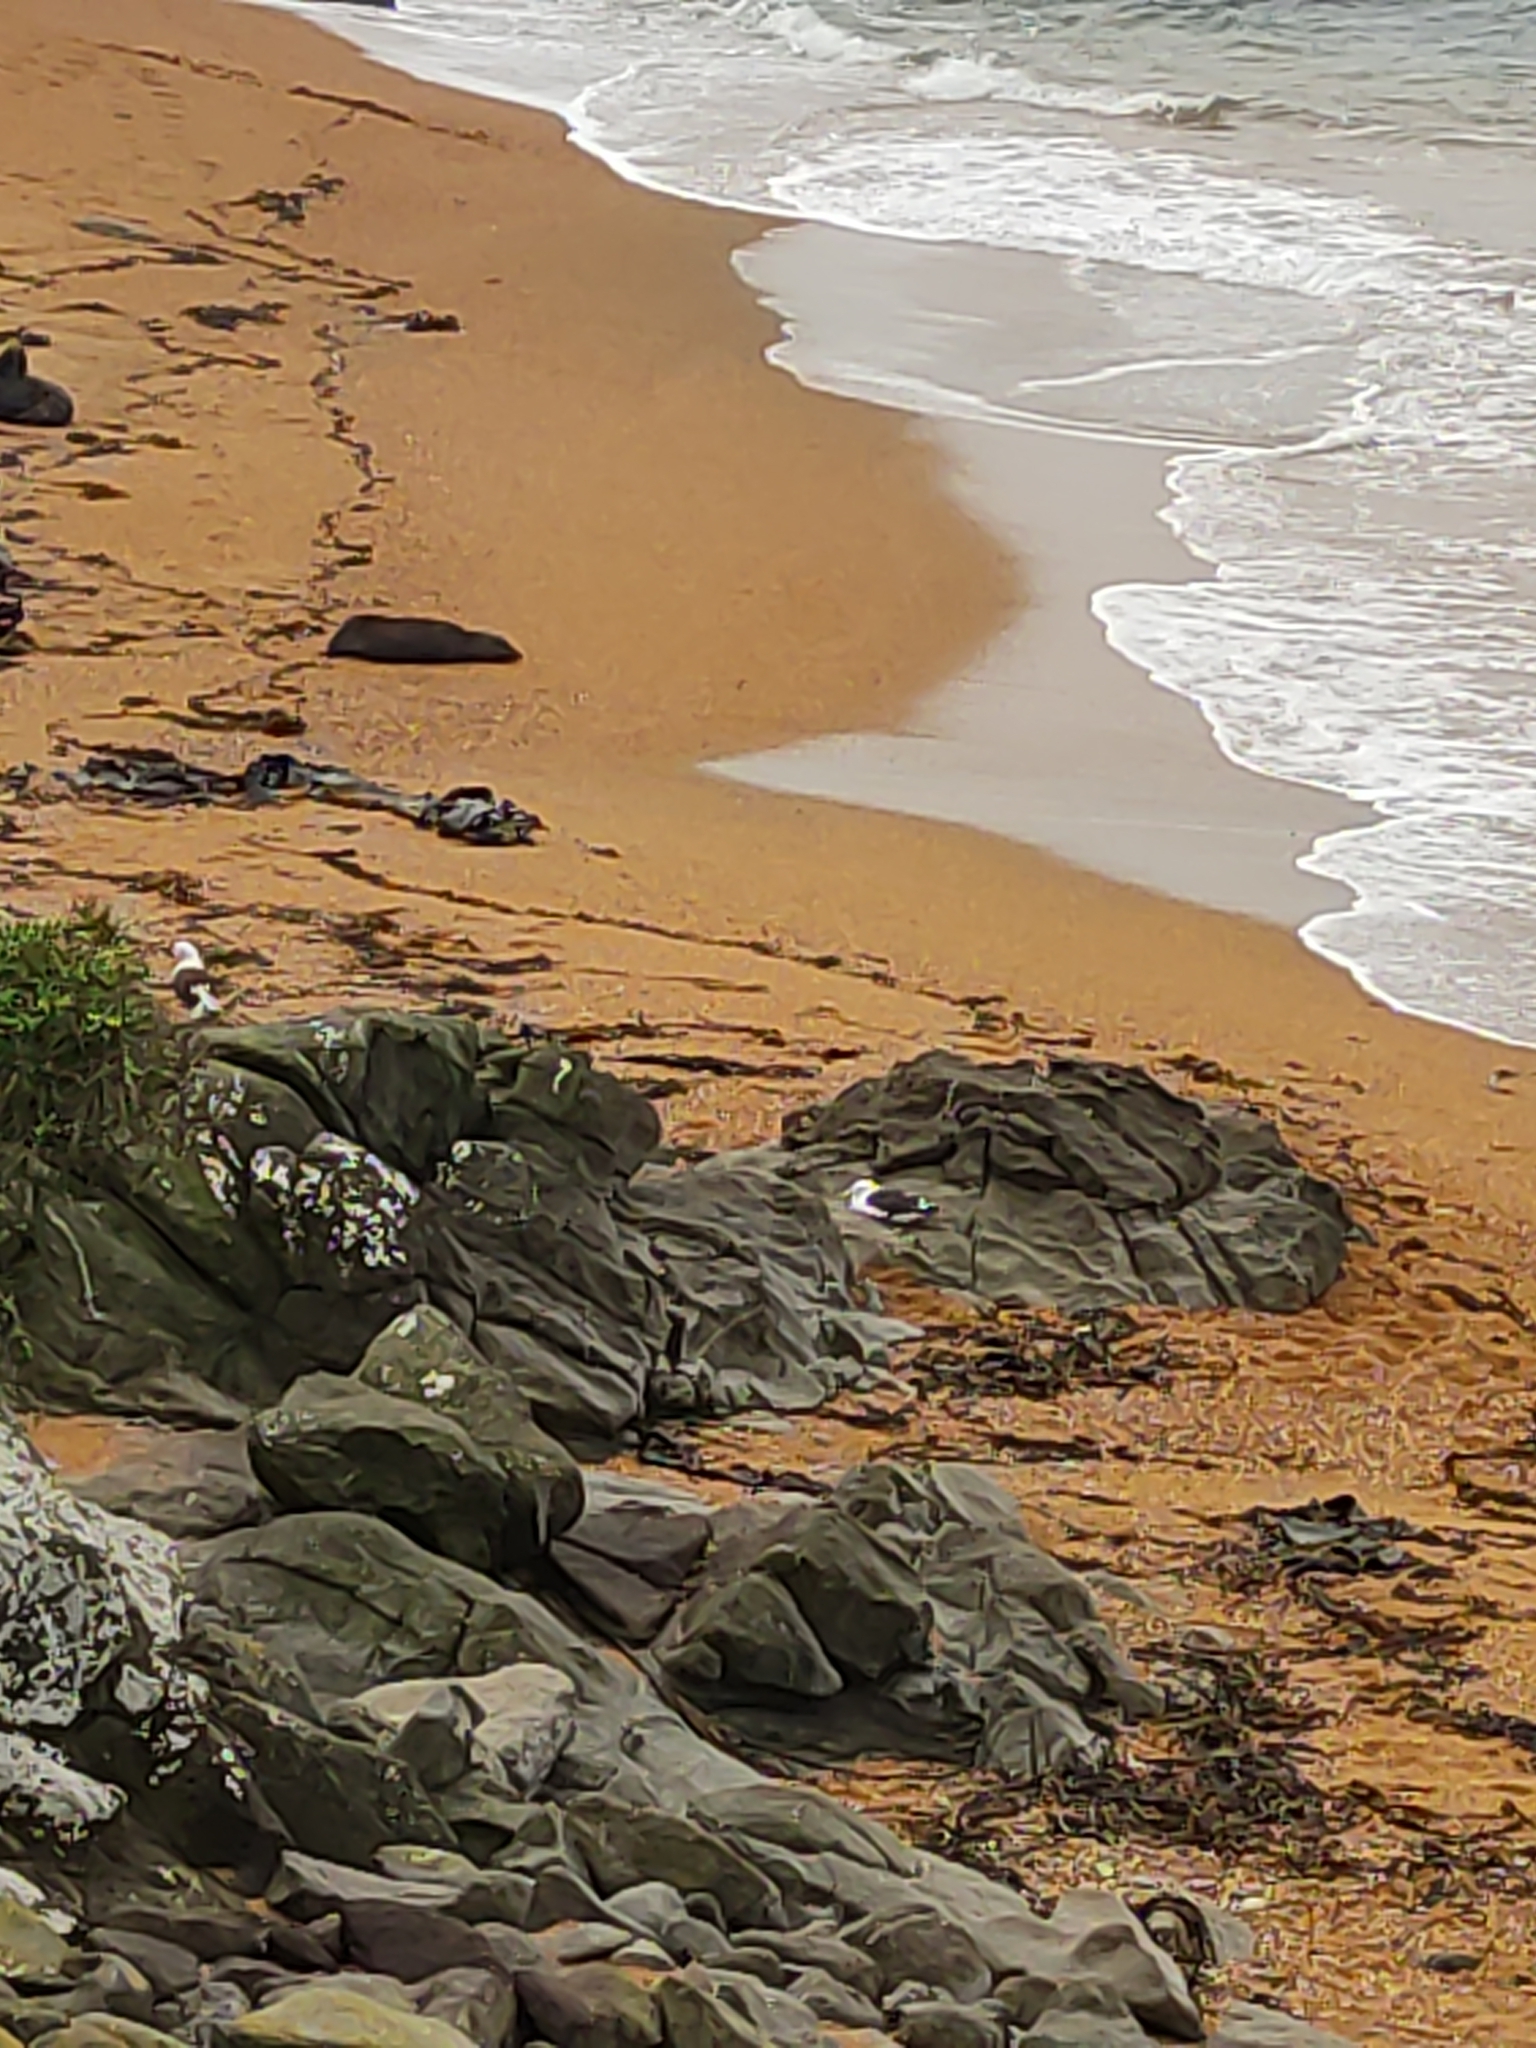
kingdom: Animalia
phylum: Chordata
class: Aves
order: Charadriiformes
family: Laridae
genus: Larus
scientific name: Larus dominicanus
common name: Kelp gull
